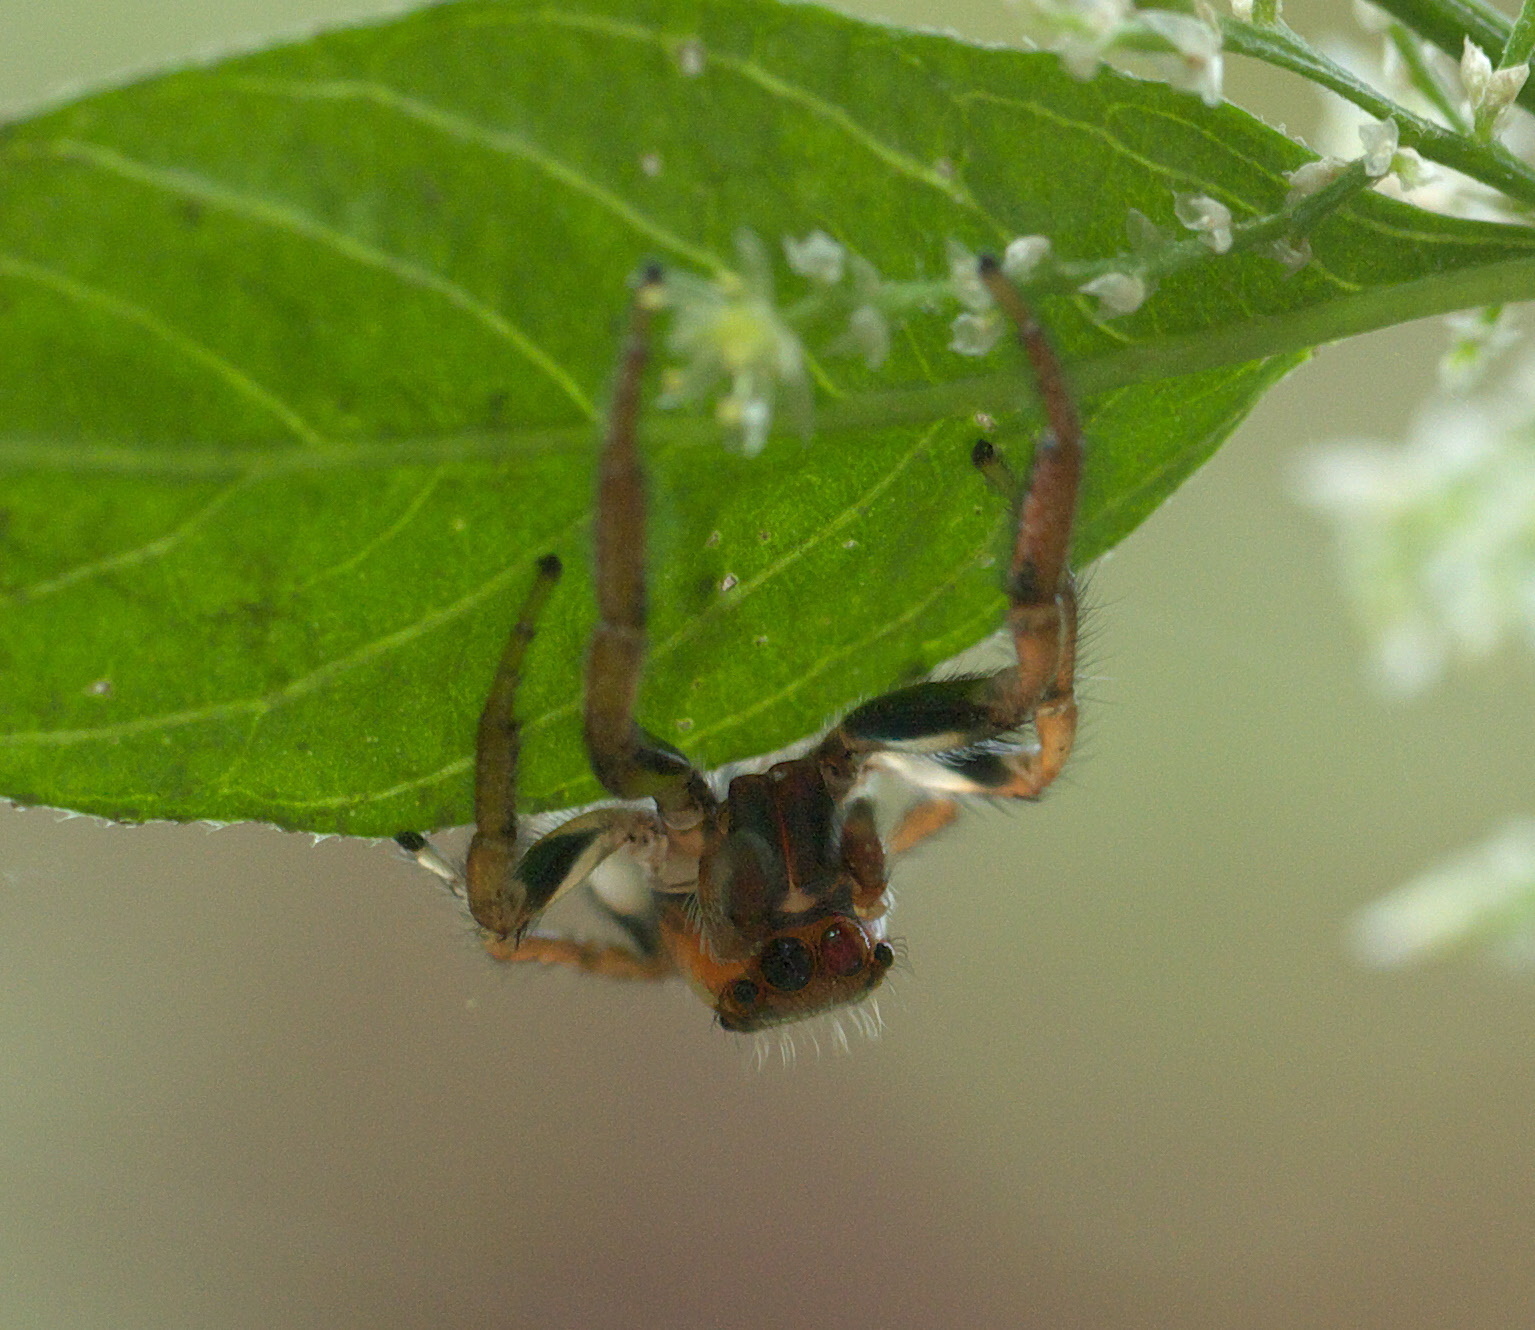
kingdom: Animalia
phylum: Arthropoda
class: Arachnida
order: Araneae
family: Salticidae
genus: Colonus
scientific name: Colonus sylvanus
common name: Jumping spiders
